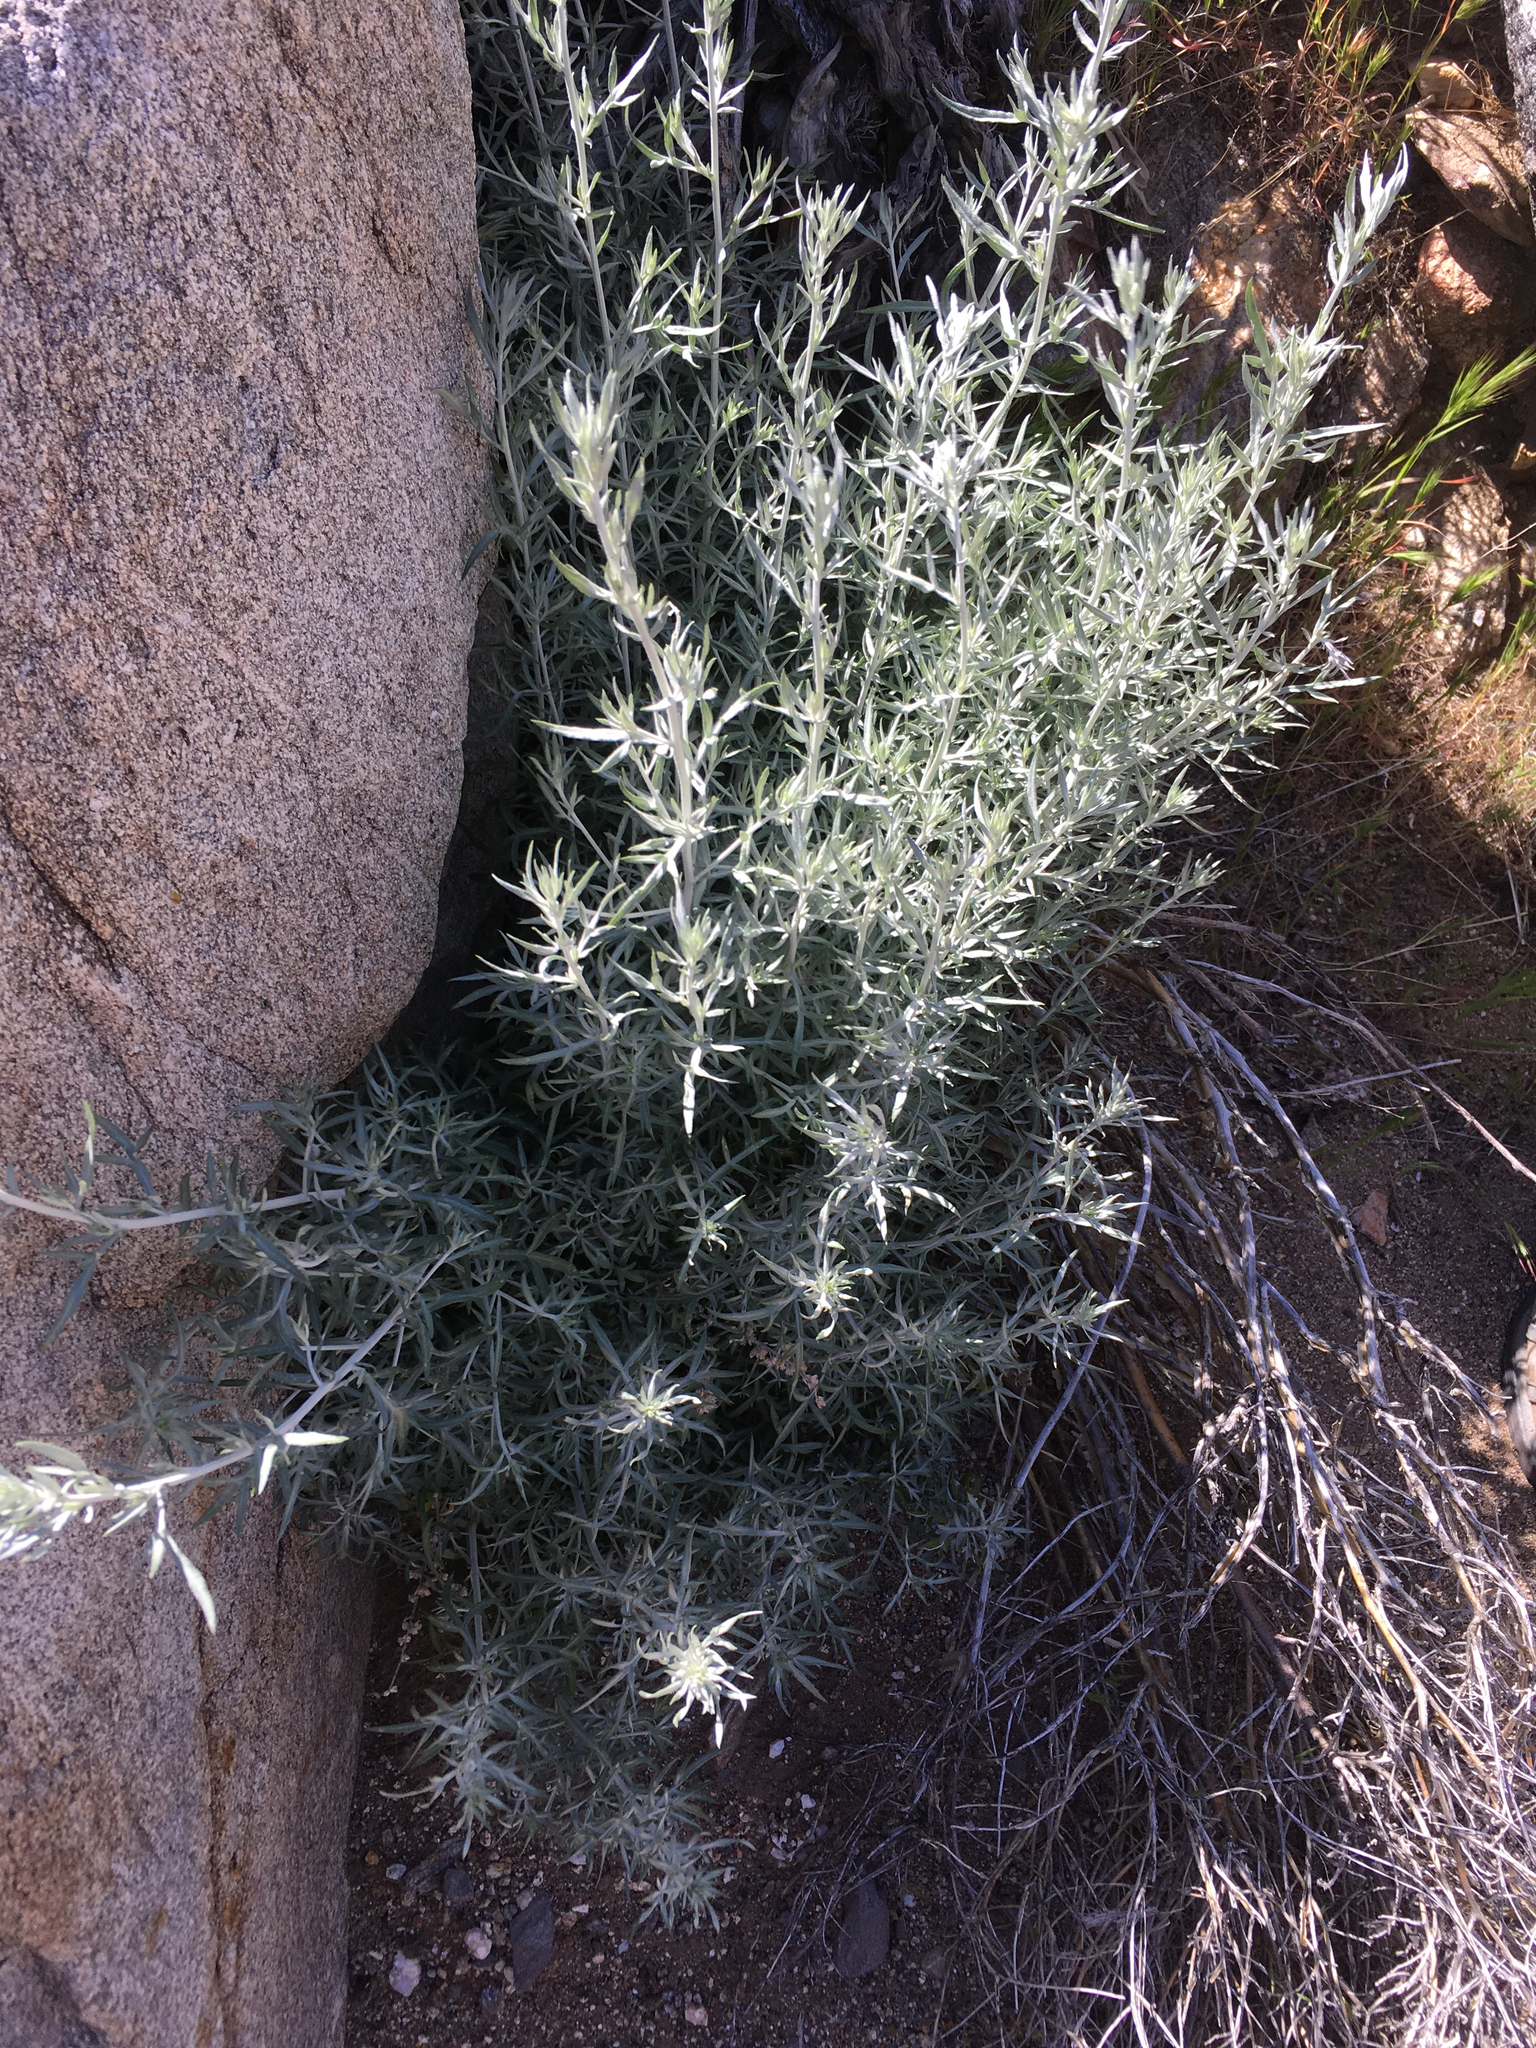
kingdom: Plantae
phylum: Tracheophyta
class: Magnoliopsida
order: Asterales
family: Asteraceae
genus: Artemisia
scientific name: Artemisia ludoviciana
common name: Western mugwort
